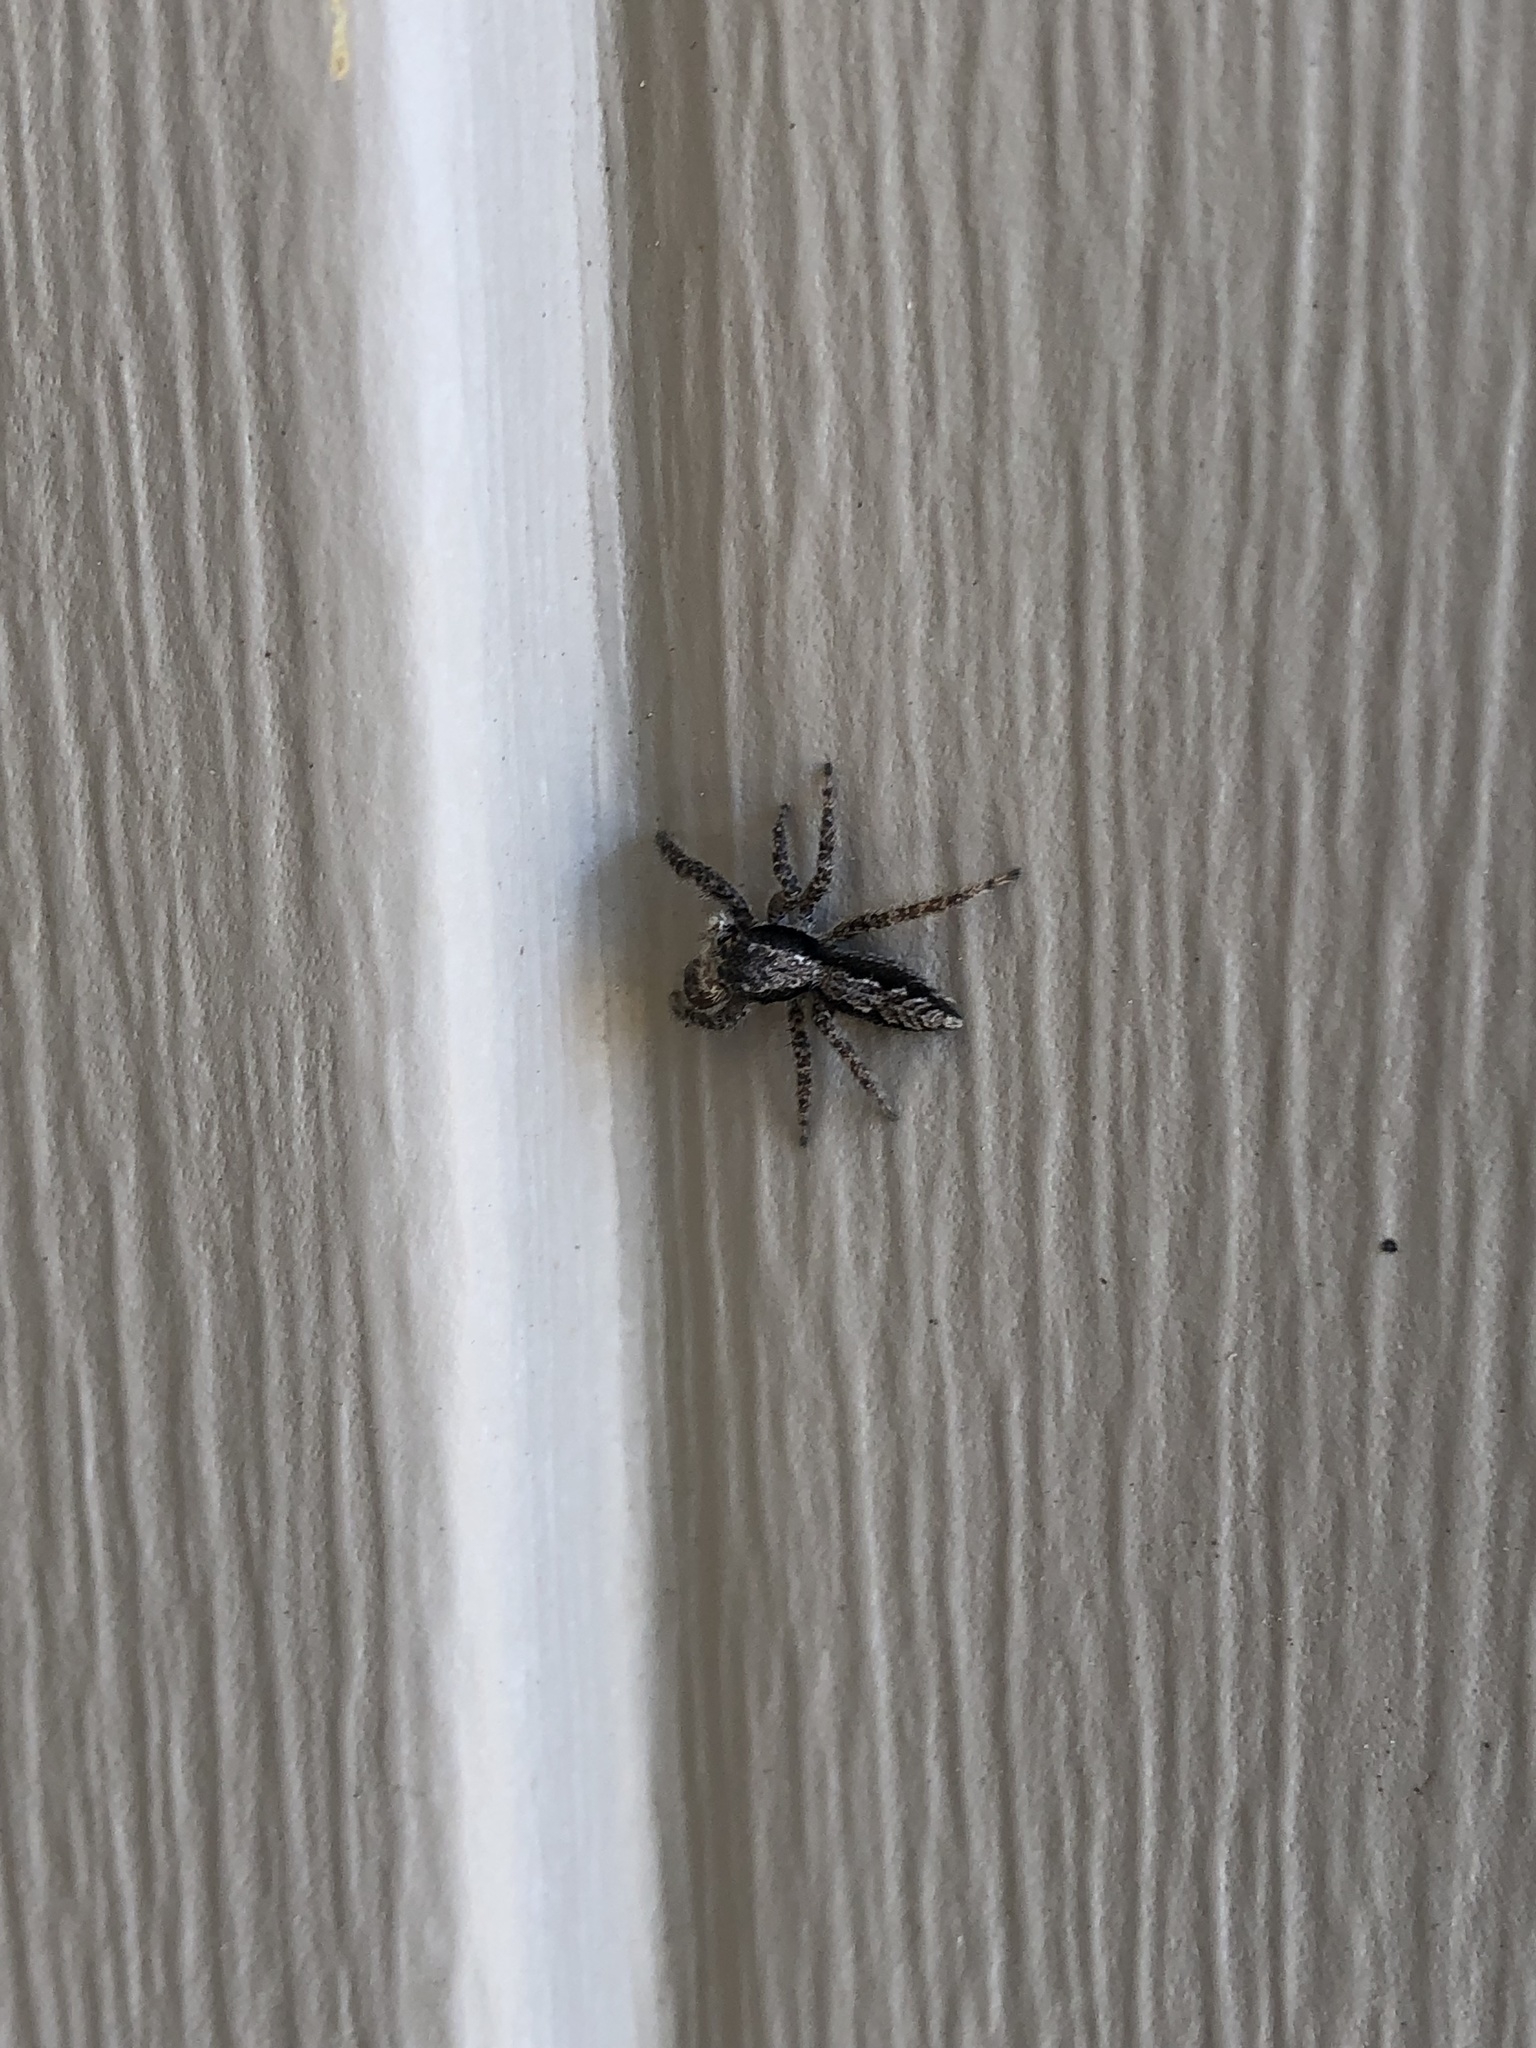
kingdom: Animalia
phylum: Arthropoda
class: Arachnida
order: Araneae
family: Salticidae
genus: Platycryptus
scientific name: Platycryptus californicus
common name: Jumping spiders
